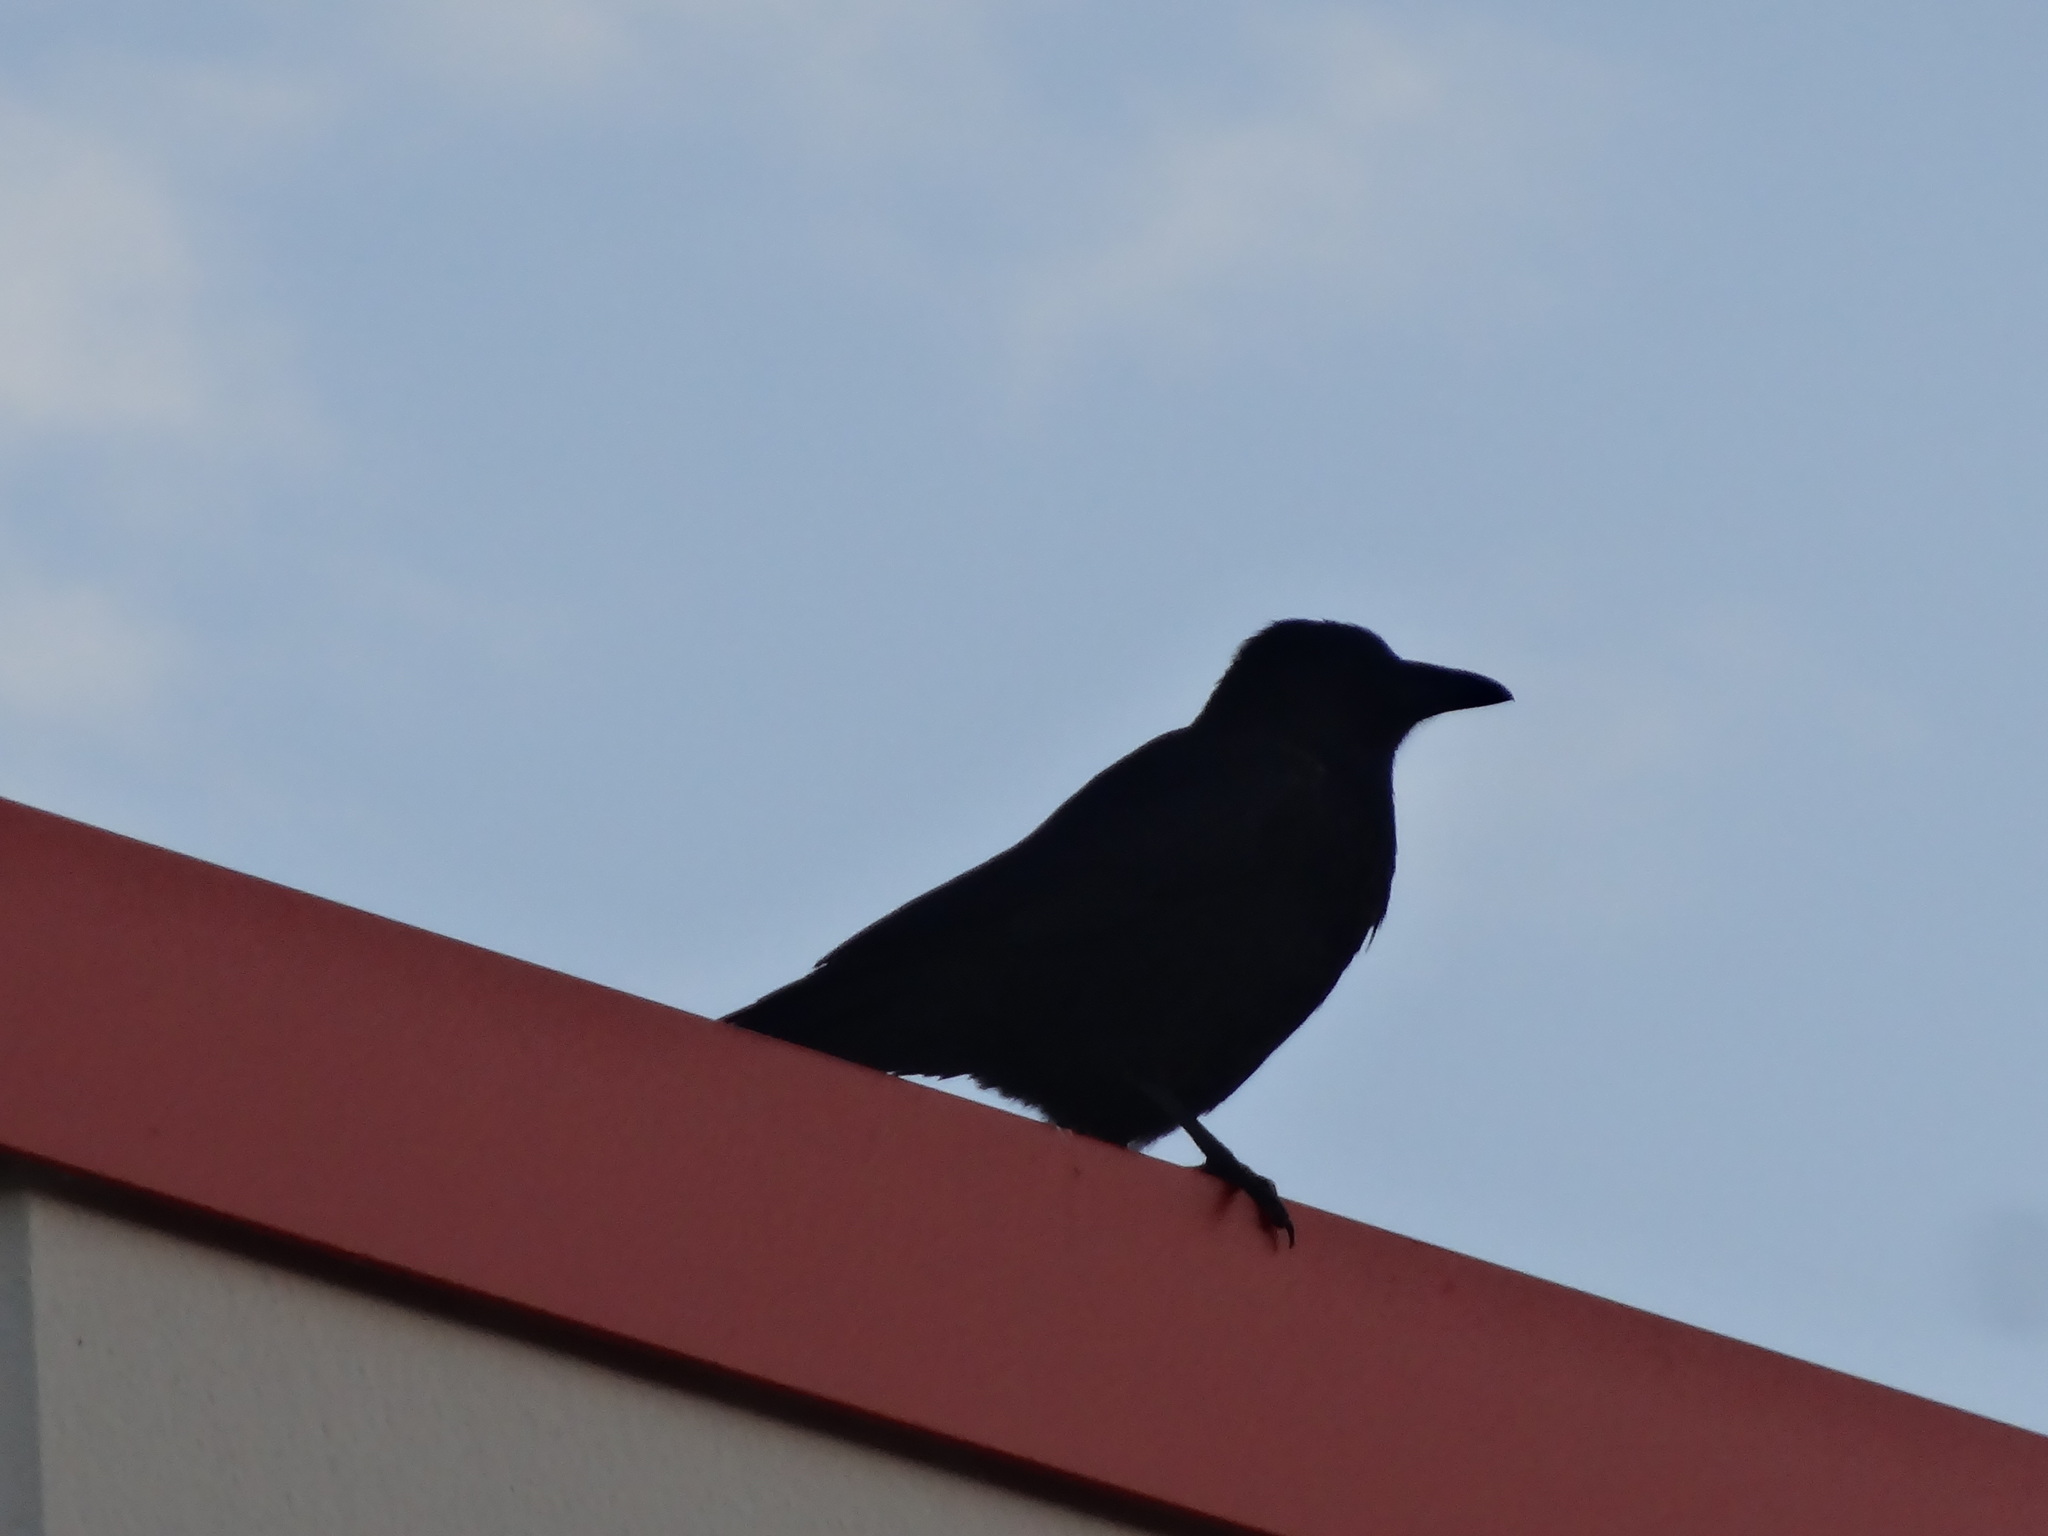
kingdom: Animalia
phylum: Chordata
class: Aves
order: Passeriformes
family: Corvidae
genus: Corvus
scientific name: Corvus corone
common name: Carrion crow
